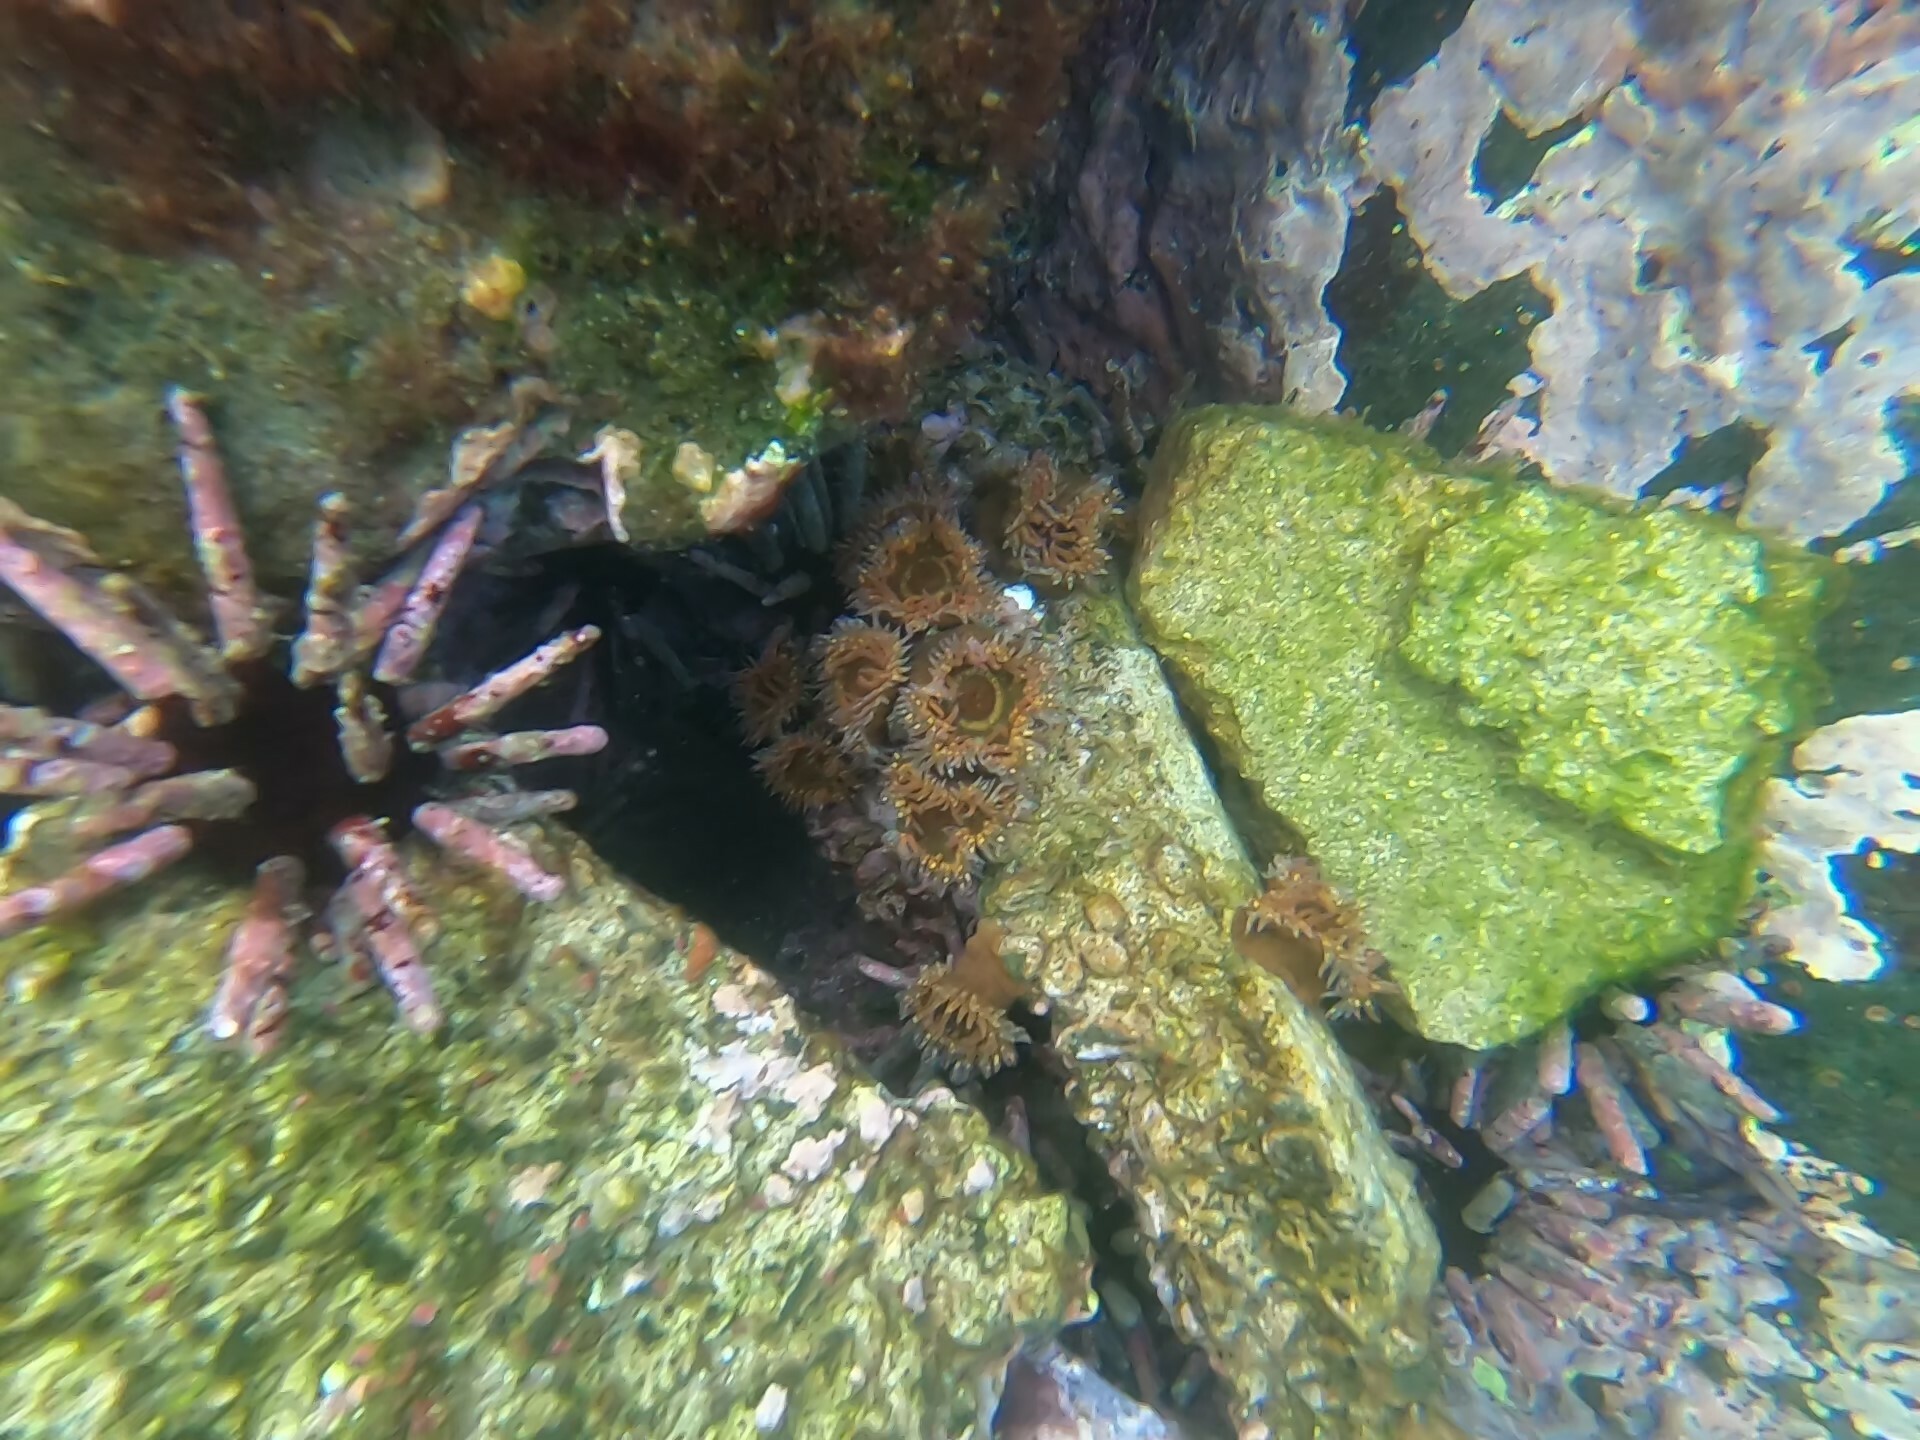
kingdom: Animalia
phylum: Cnidaria
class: Anthozoa
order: Actiniaria
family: Actiniidae
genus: Bunodosoma
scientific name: Bunodosoma grande
